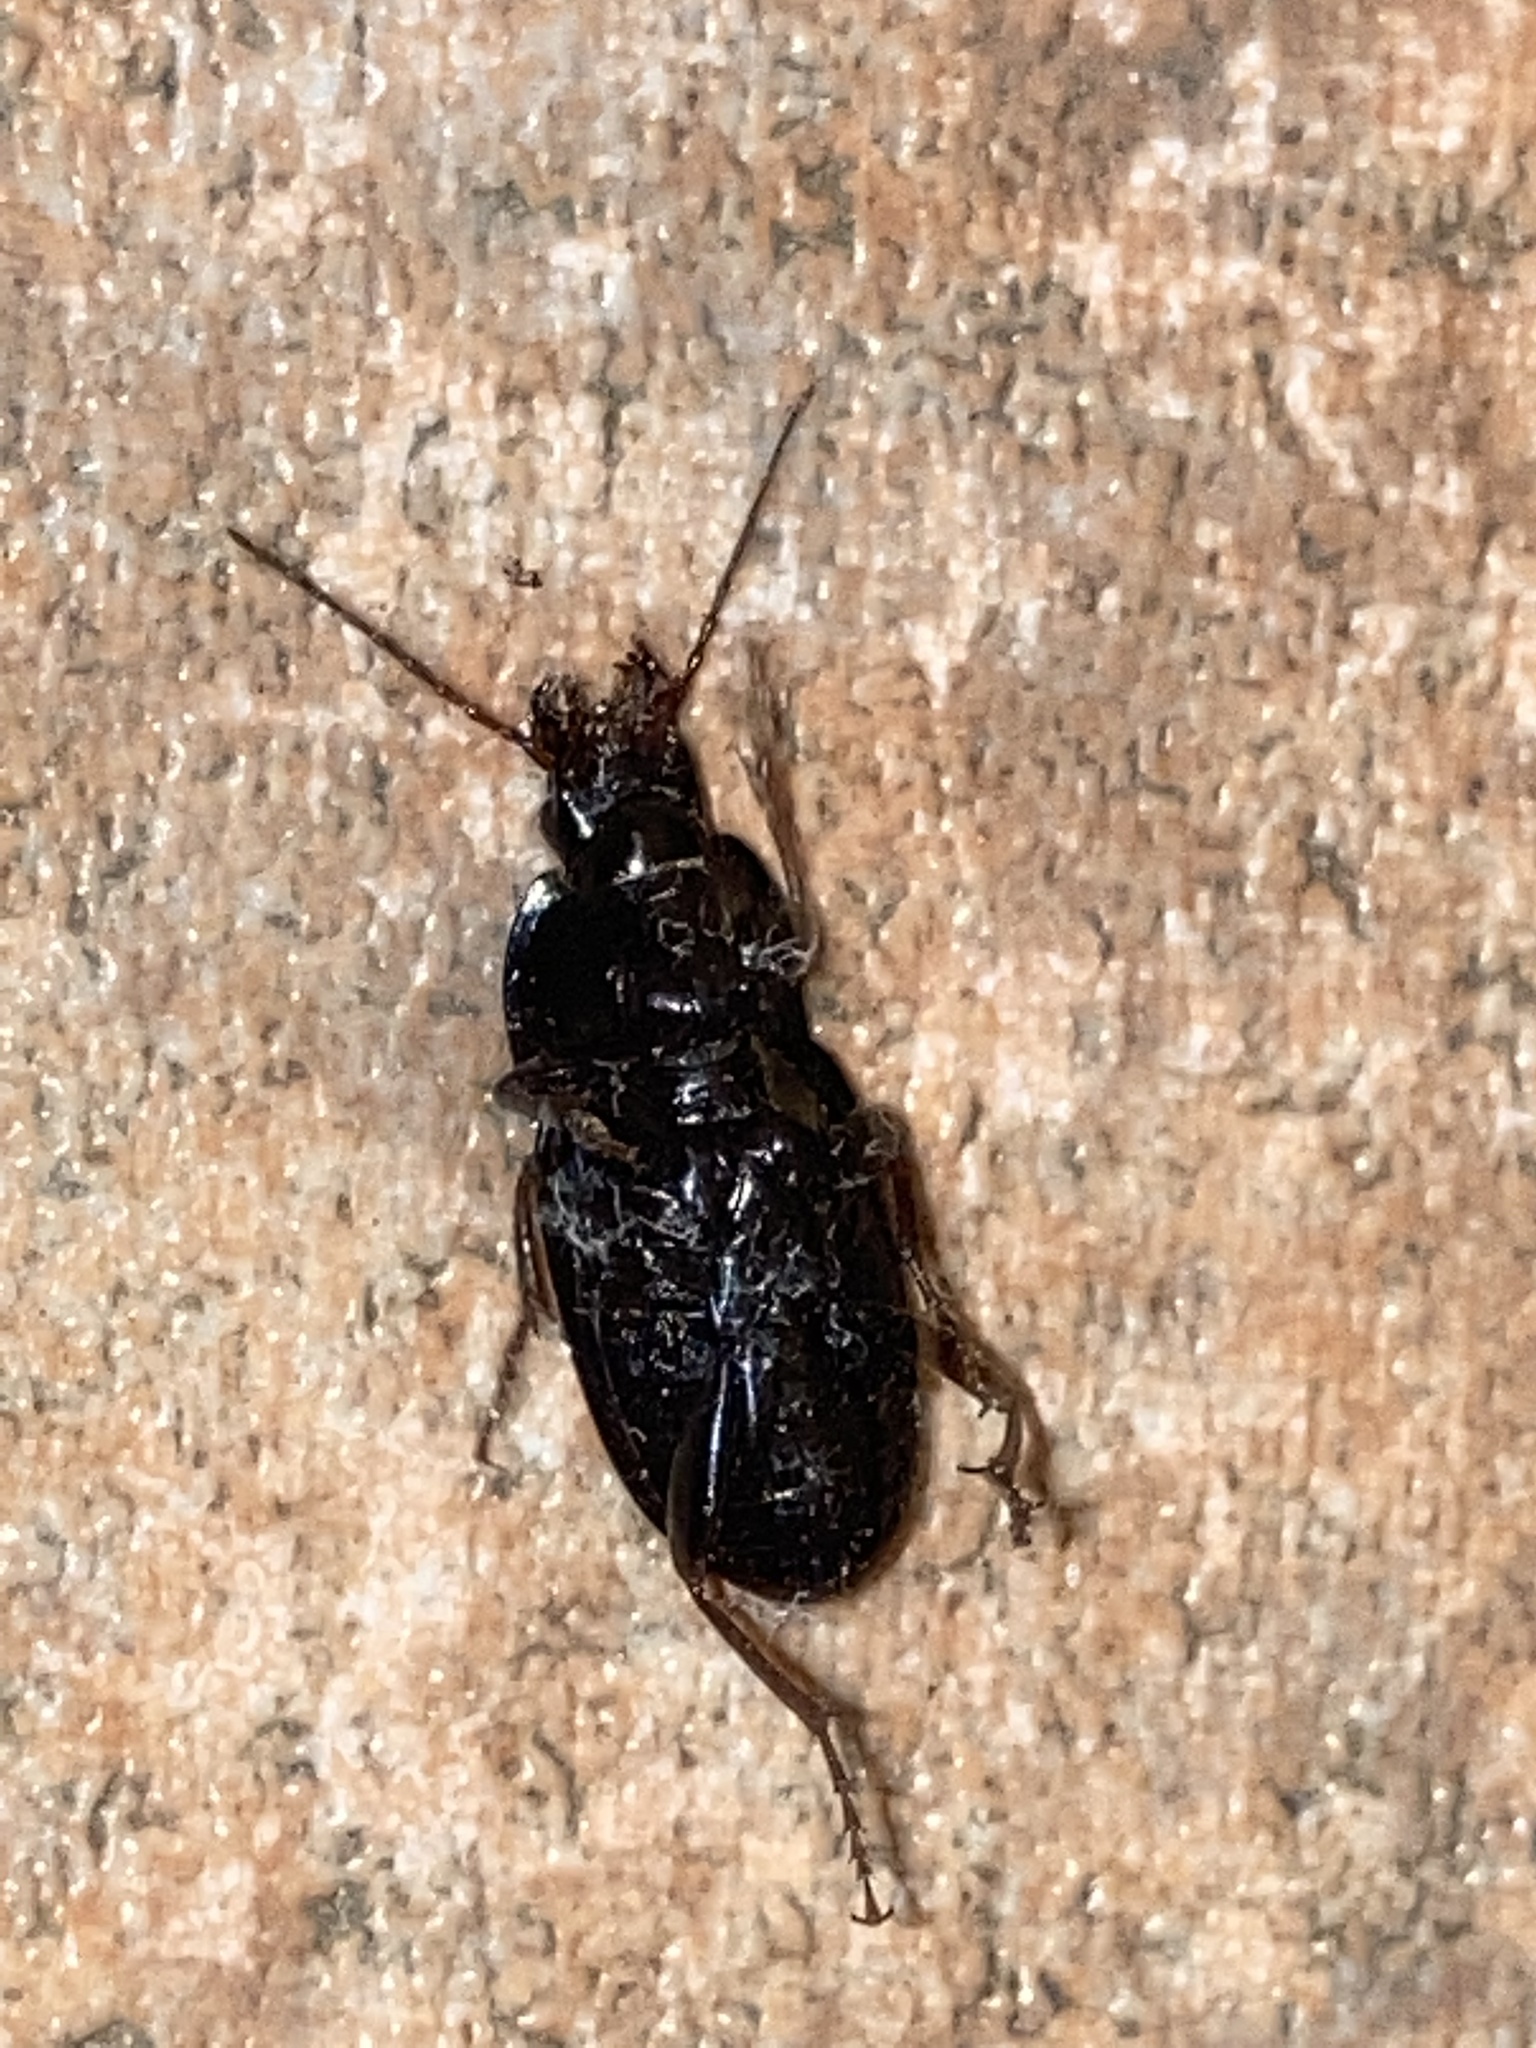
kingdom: Animalia
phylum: Arthropoda
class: Insecta
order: Coleoptera
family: Carabidae
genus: Abacidus
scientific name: Abacidus
